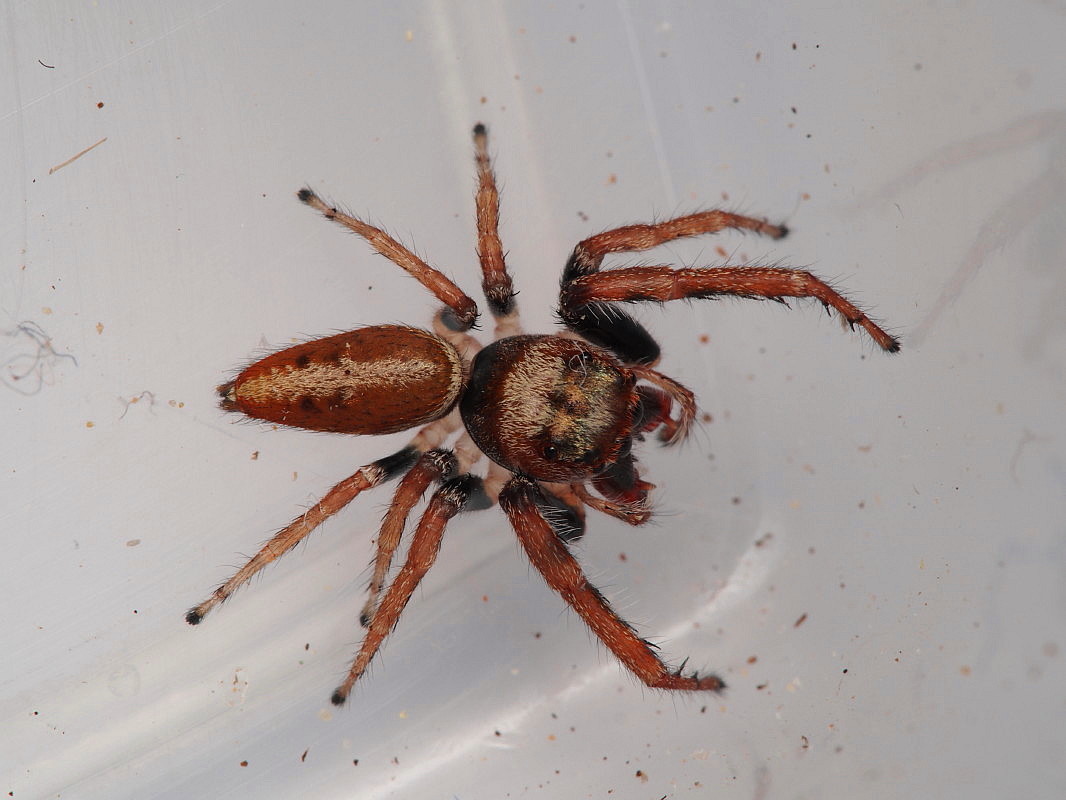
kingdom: Animalia
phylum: Arthropoda
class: Arachnida
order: Araneae
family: Salticidae
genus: Opisthoncus
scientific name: Opisthoncus polyphemus
